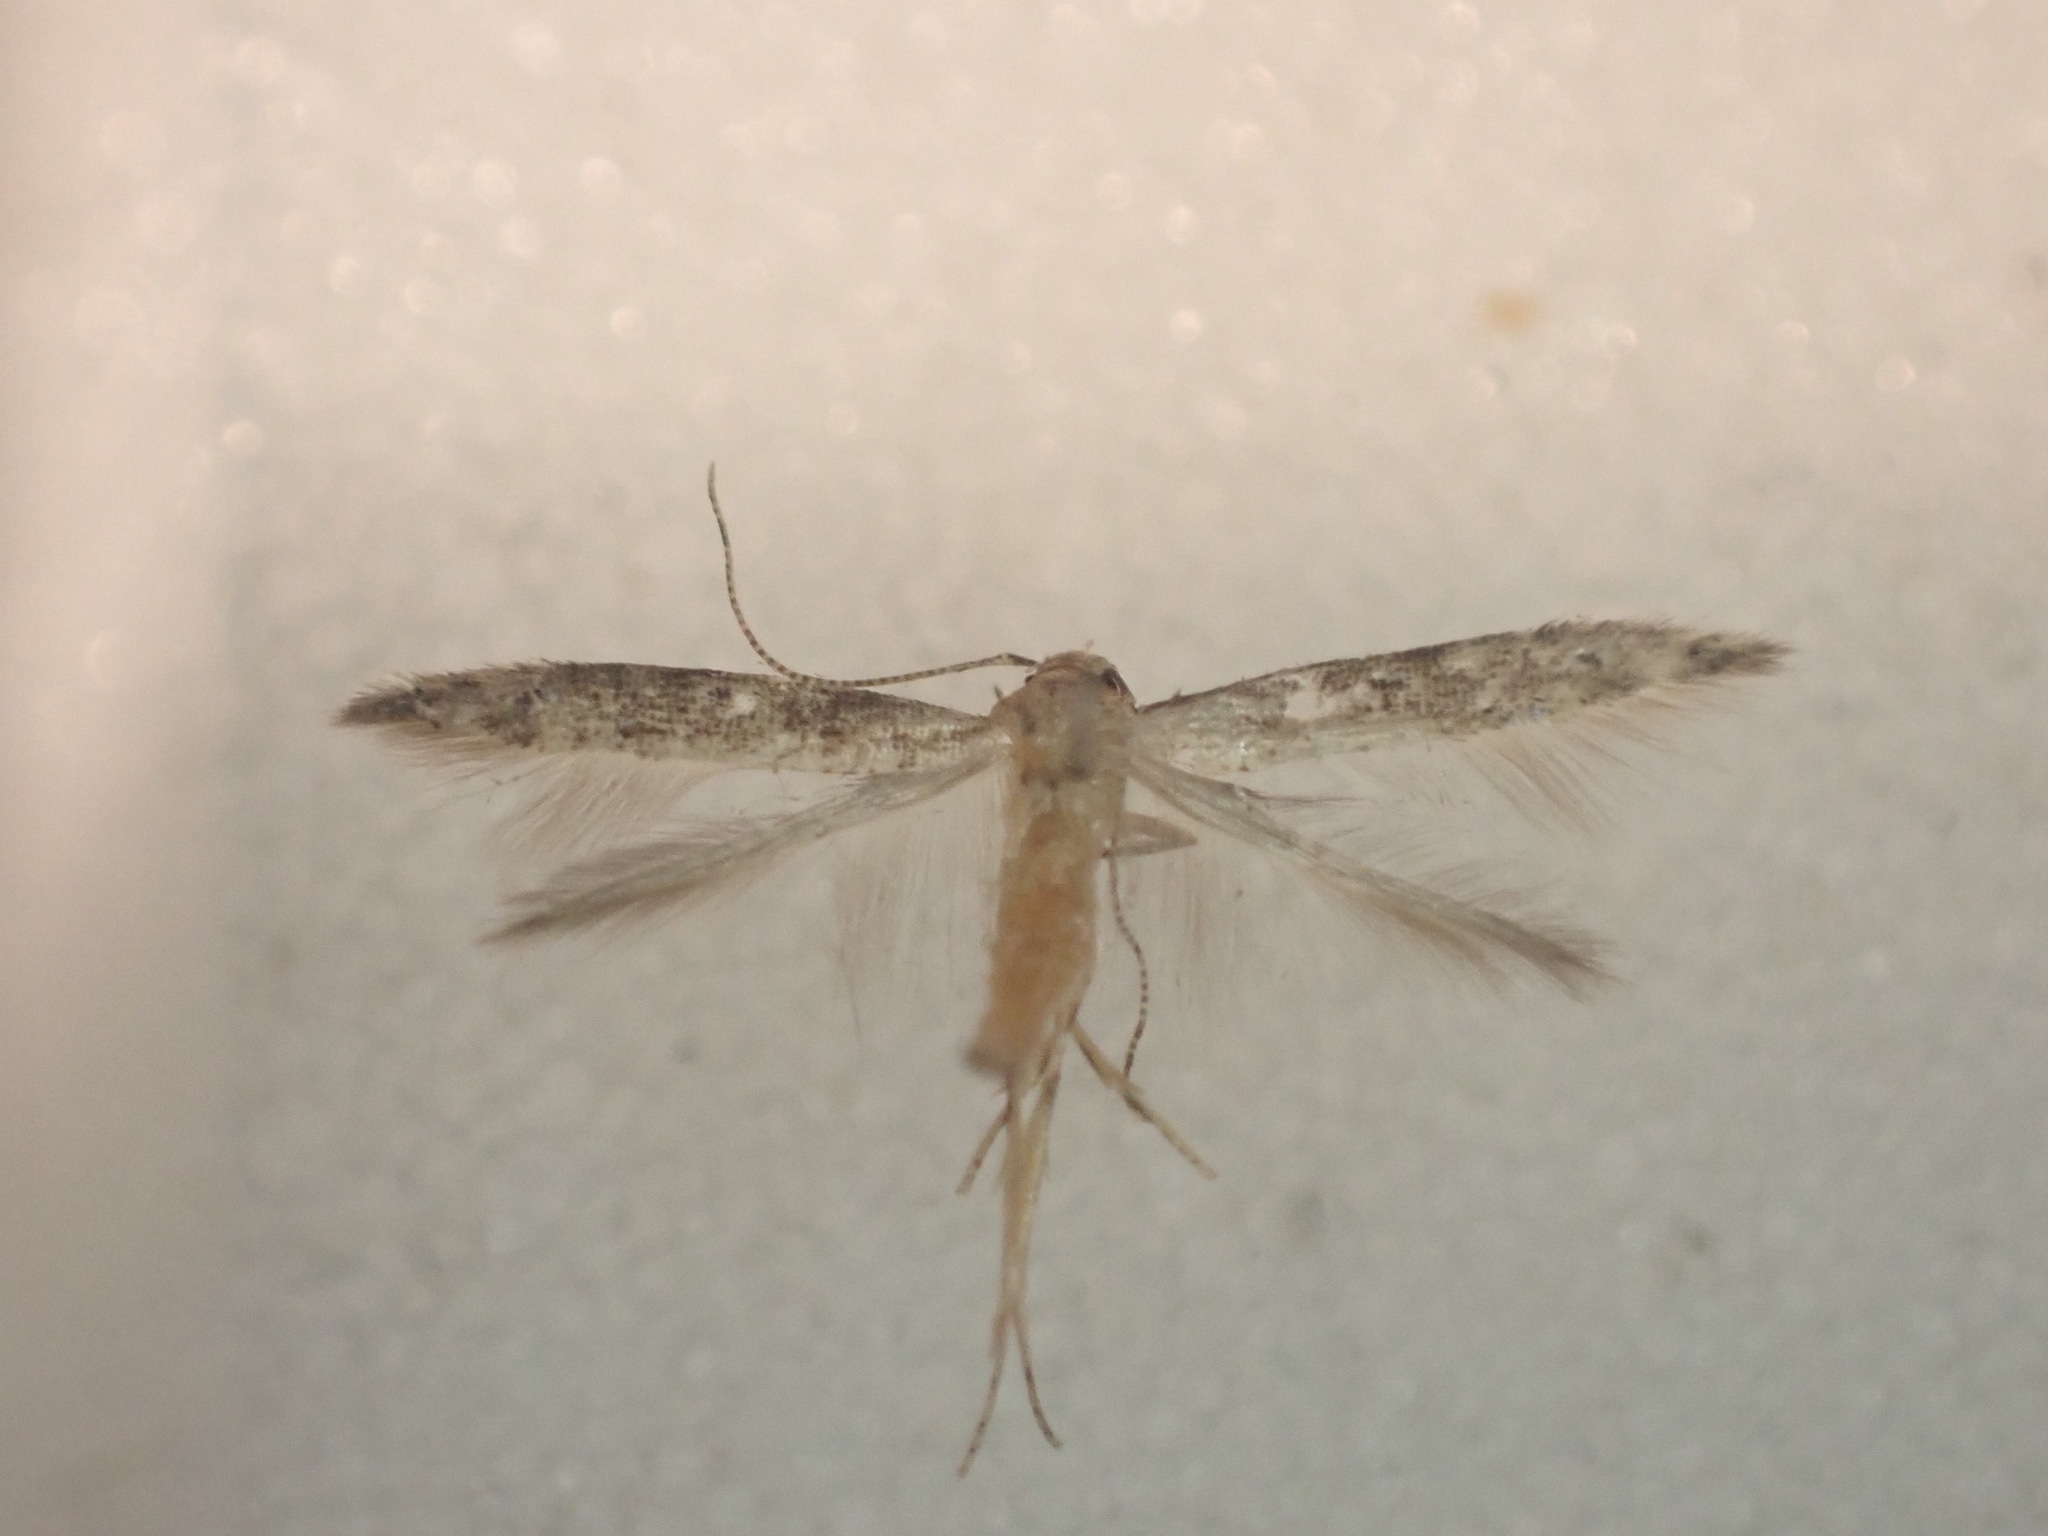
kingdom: Animalia
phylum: Arthropoda
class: Insecta
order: Lepidoptera
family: Elachistidae
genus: Microcolona
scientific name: Microcolona limodes
